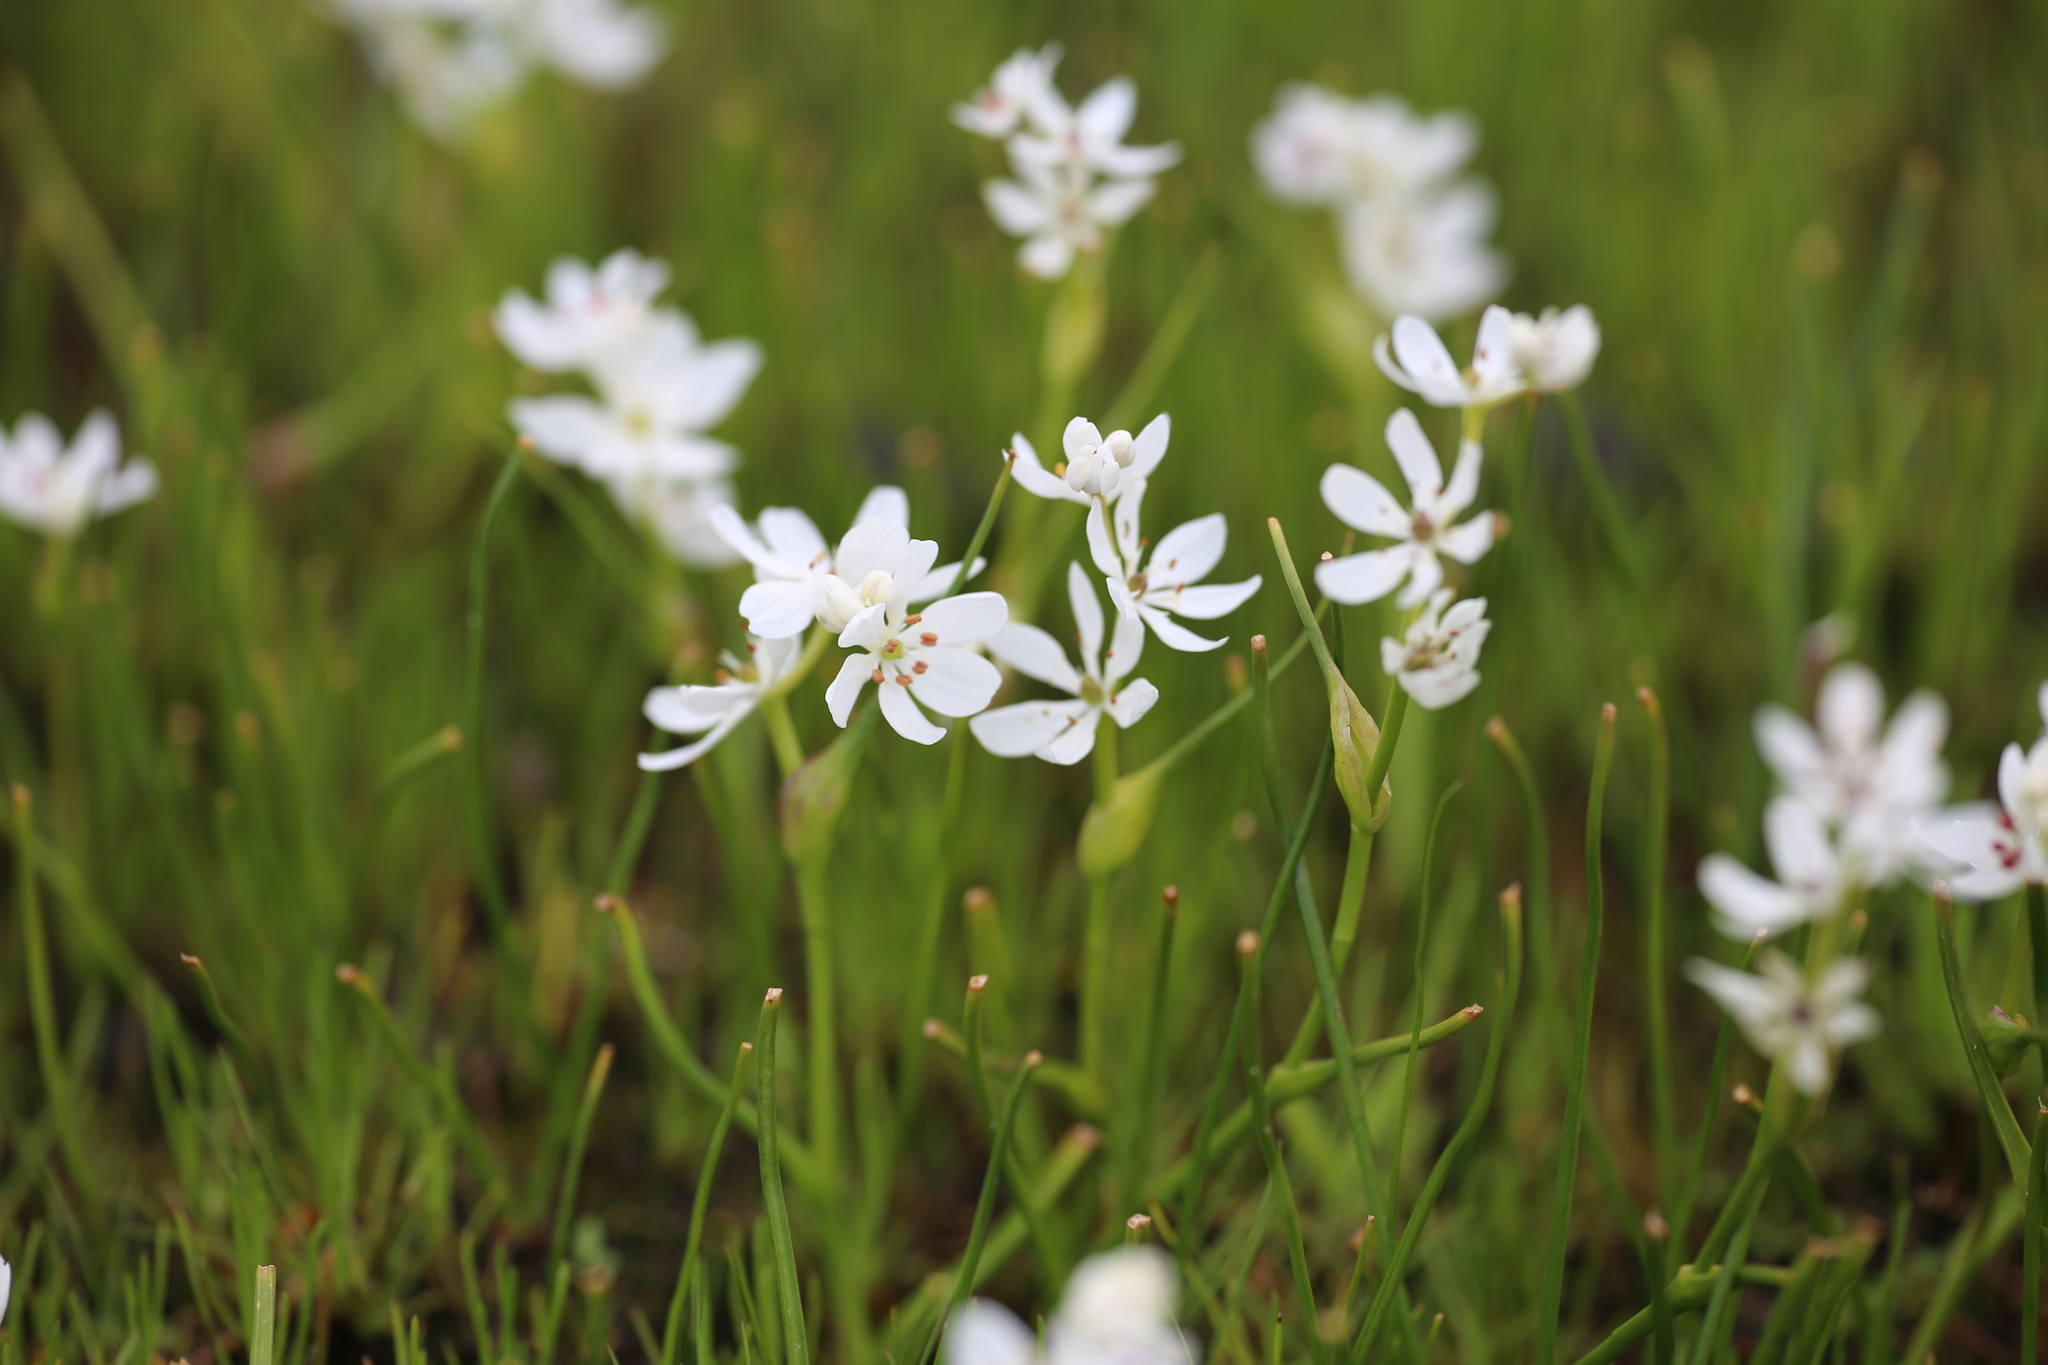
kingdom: Plantae
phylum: Tracheophyta
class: Liliopsida
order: Liliales
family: Colchicaceae
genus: Wurmbea
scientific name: Wurmbea murchisoniana
